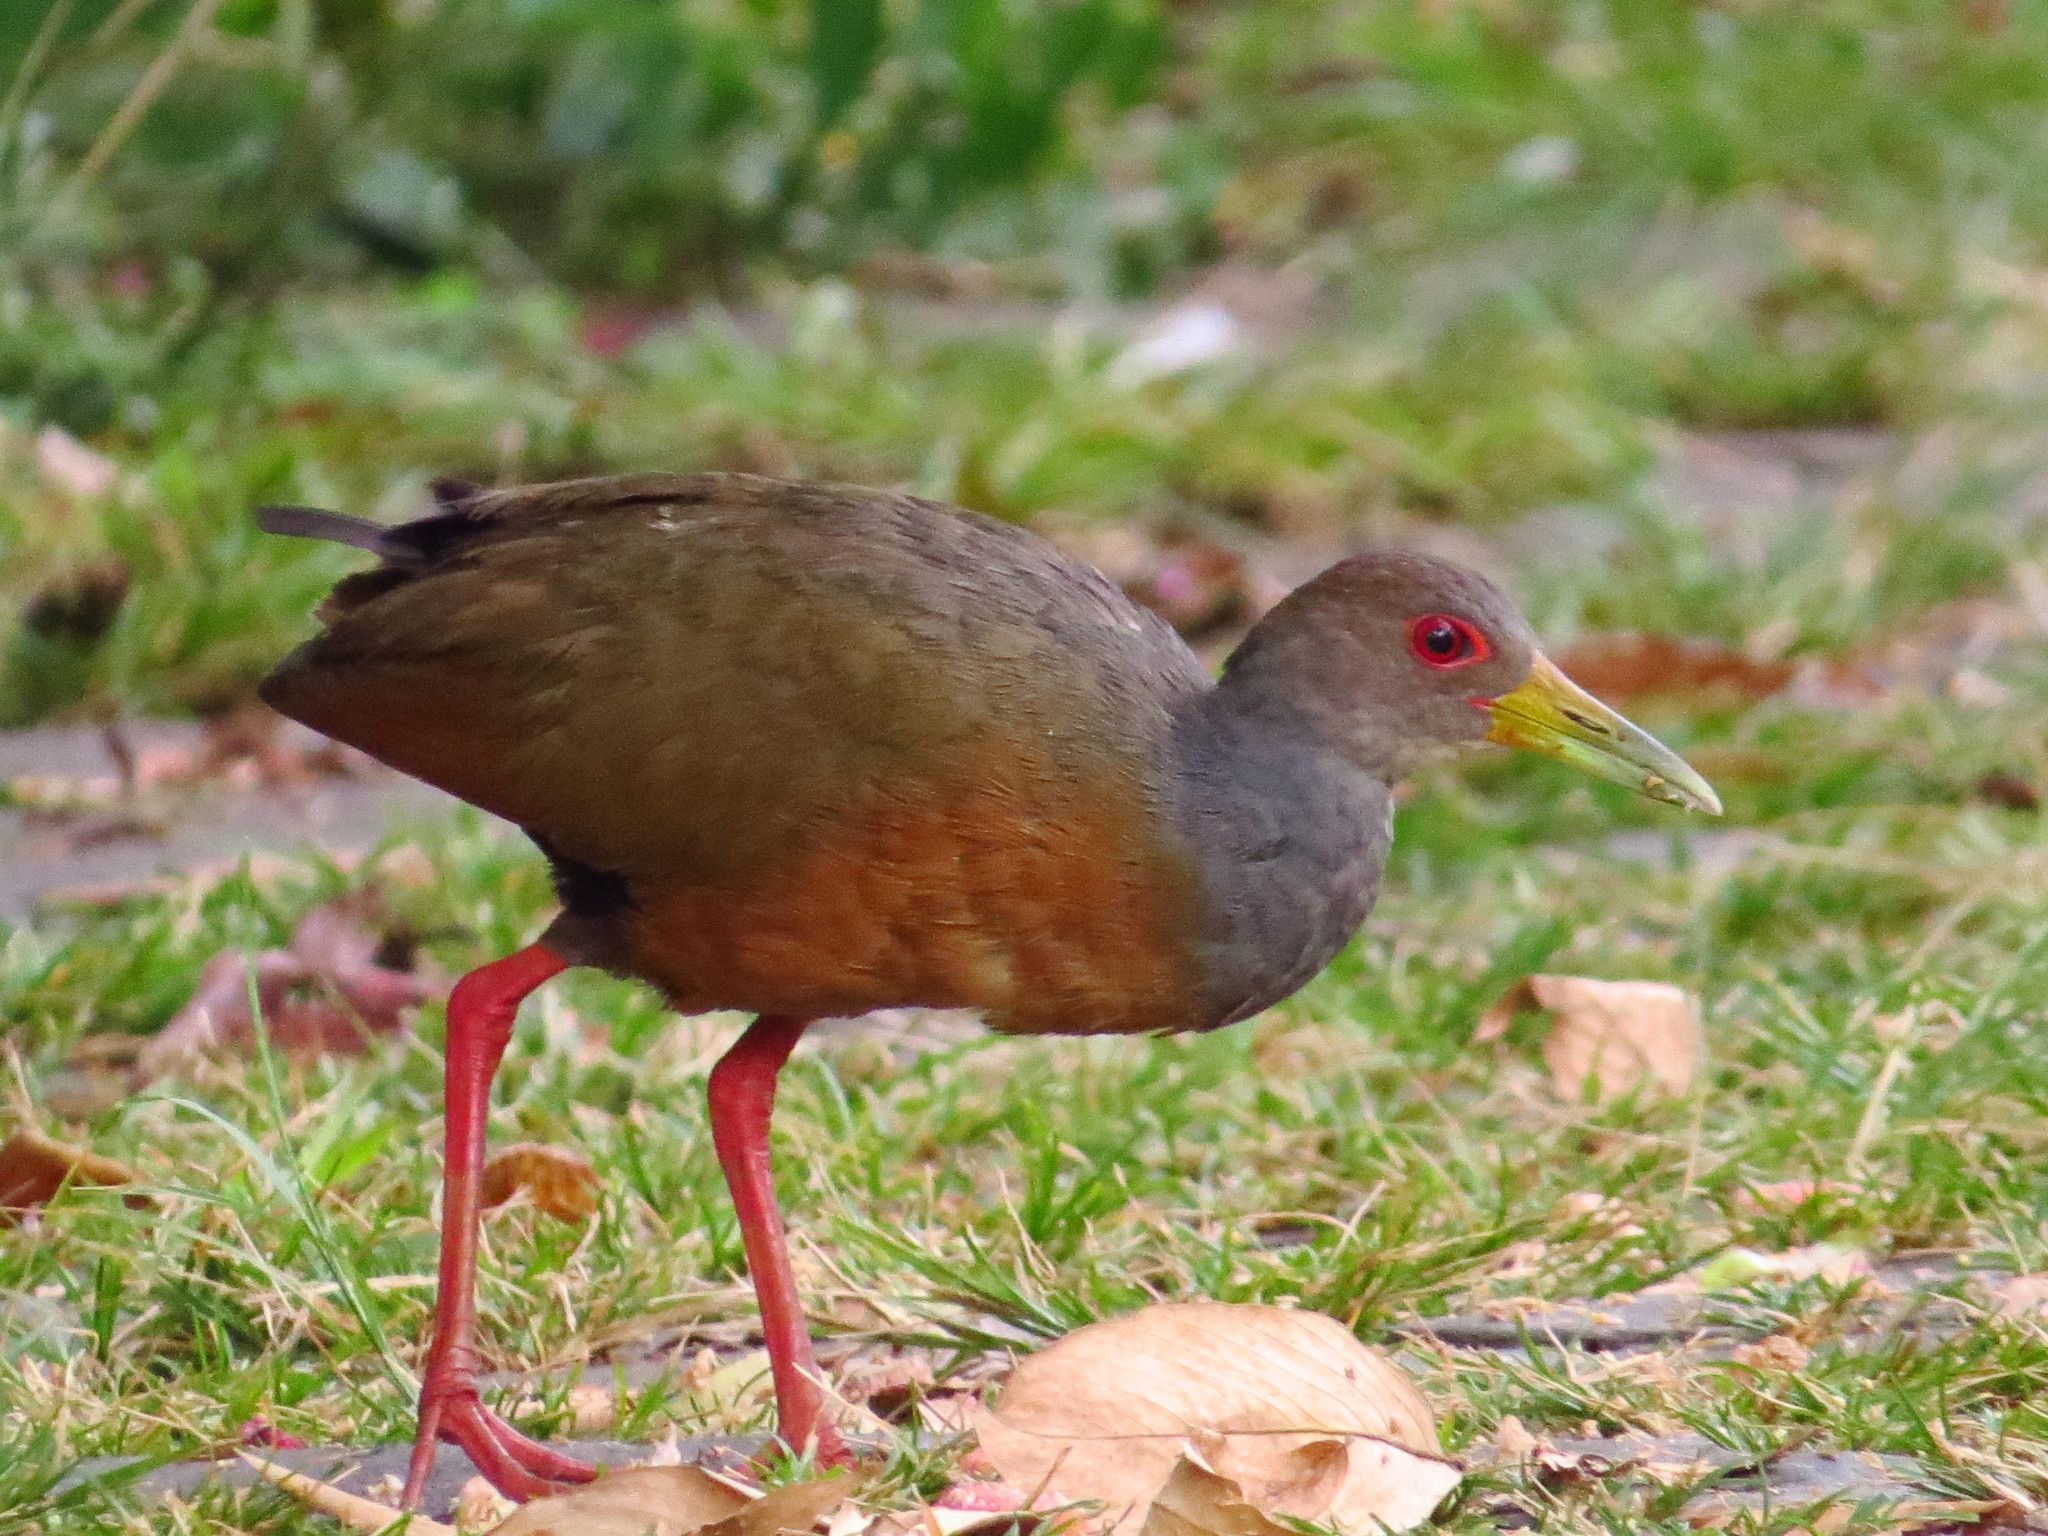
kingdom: Animalia
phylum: Chordata
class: Aves
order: Gruiformes
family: Rallidae
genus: Aramides
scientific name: Aramides cajanea
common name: Gray-necked wood-rail
